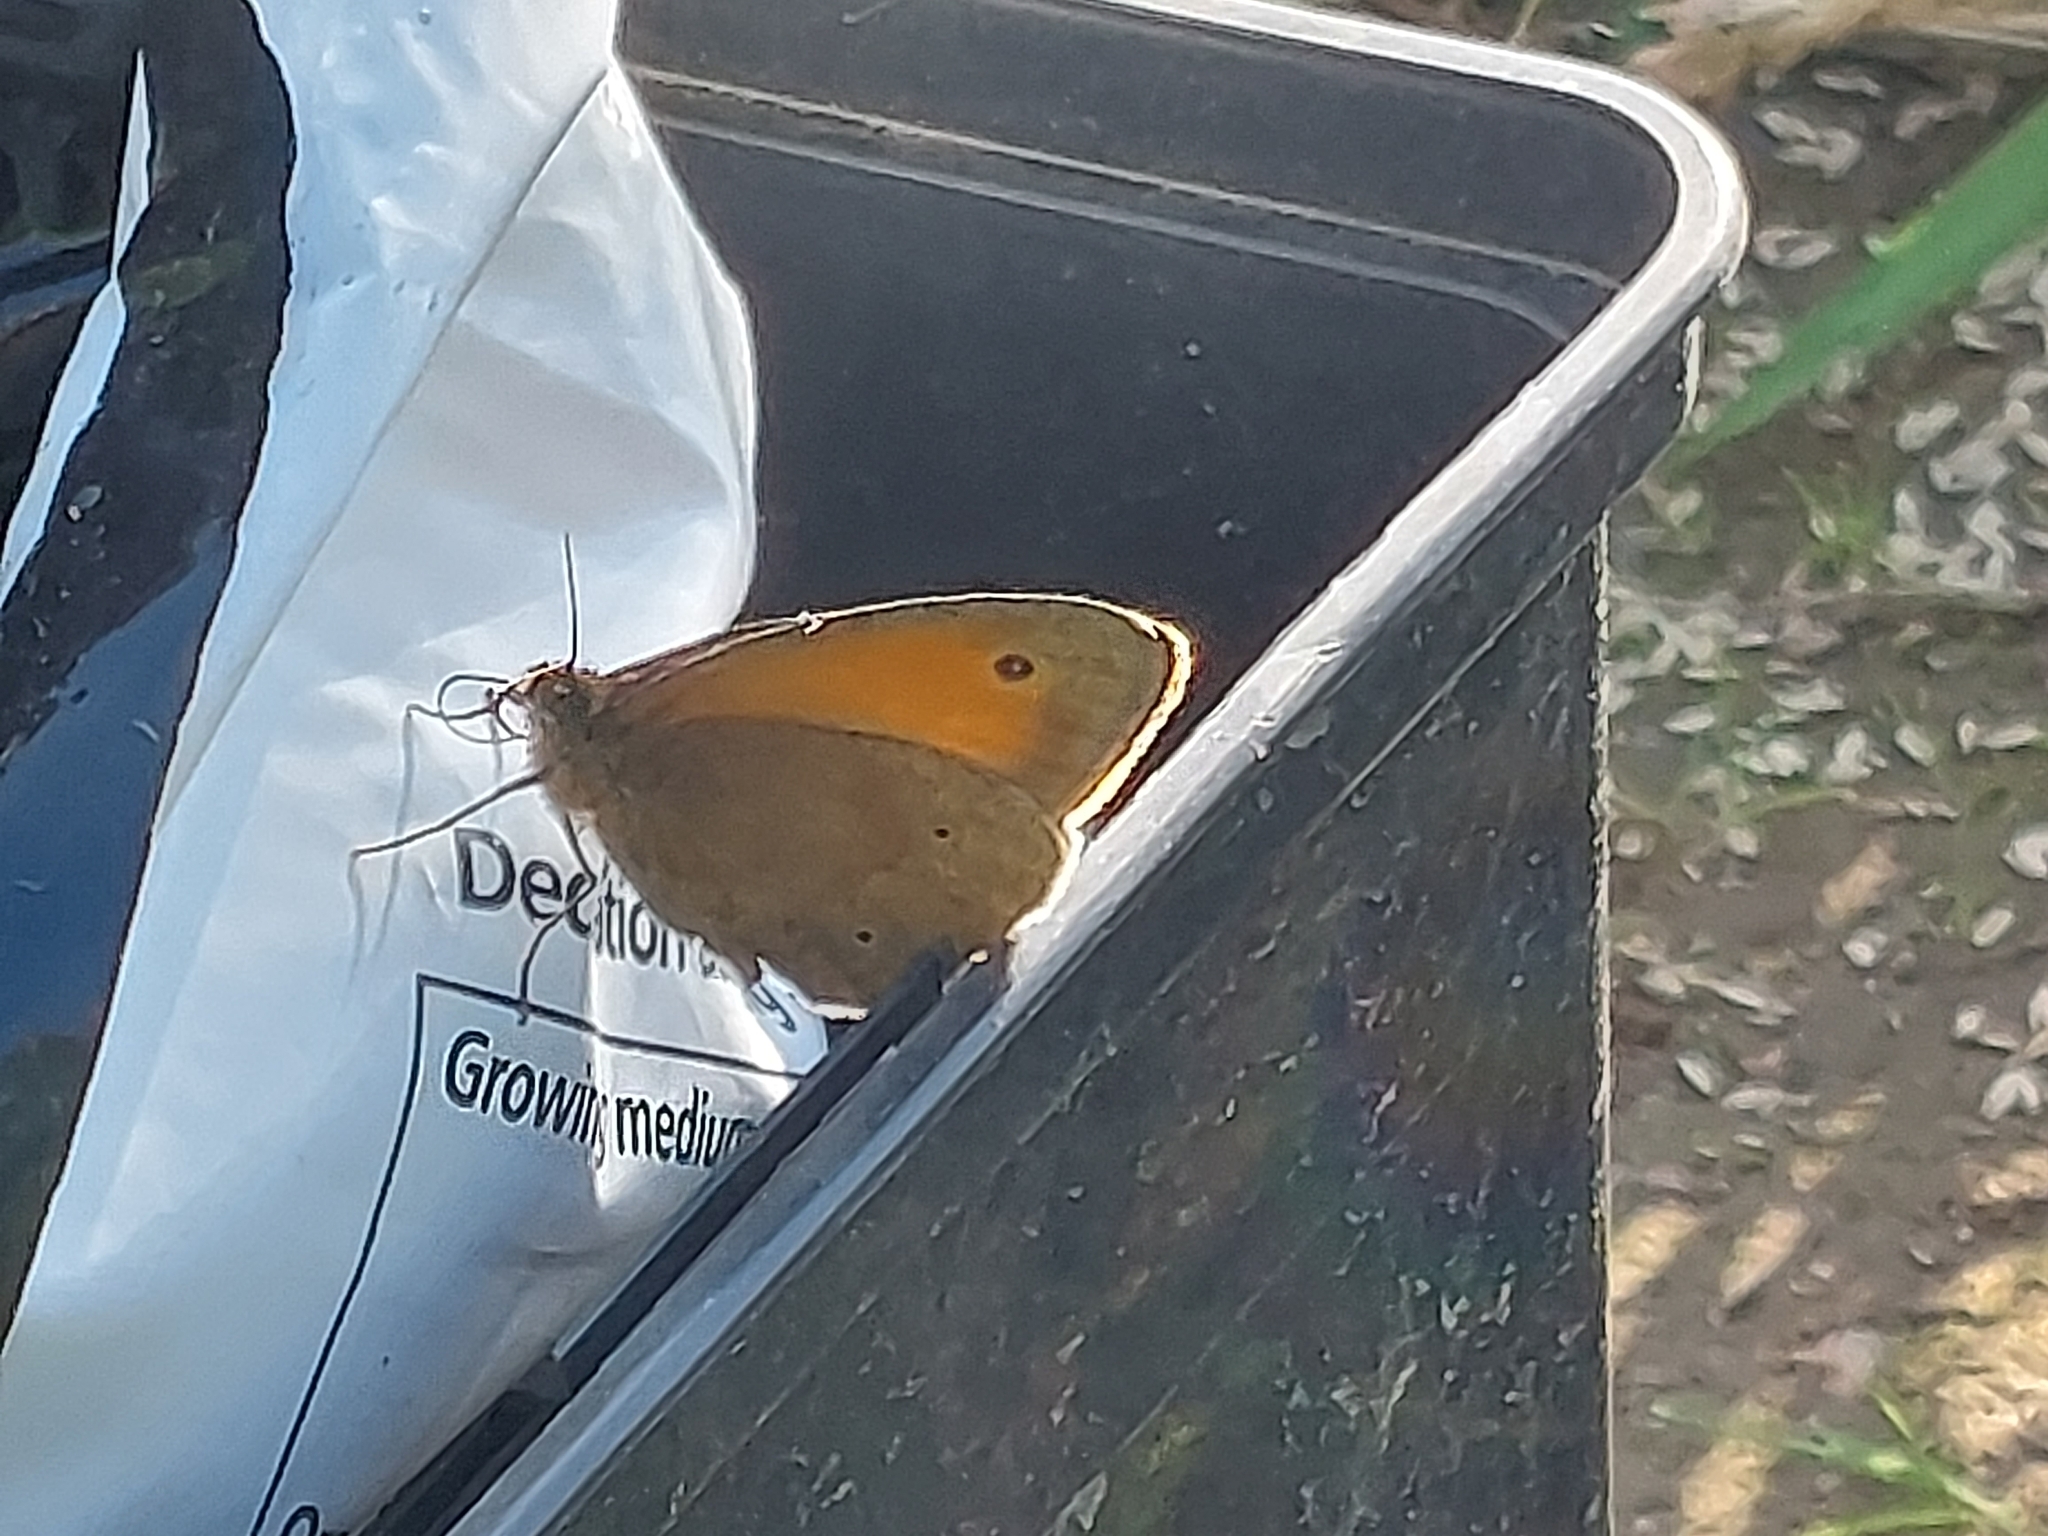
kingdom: Animalia
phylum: Arthropoda
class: Insecta
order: Lepidoptera
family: Nymphalidae
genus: Maniola
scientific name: Maniola jurtina
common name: Meadow brown
